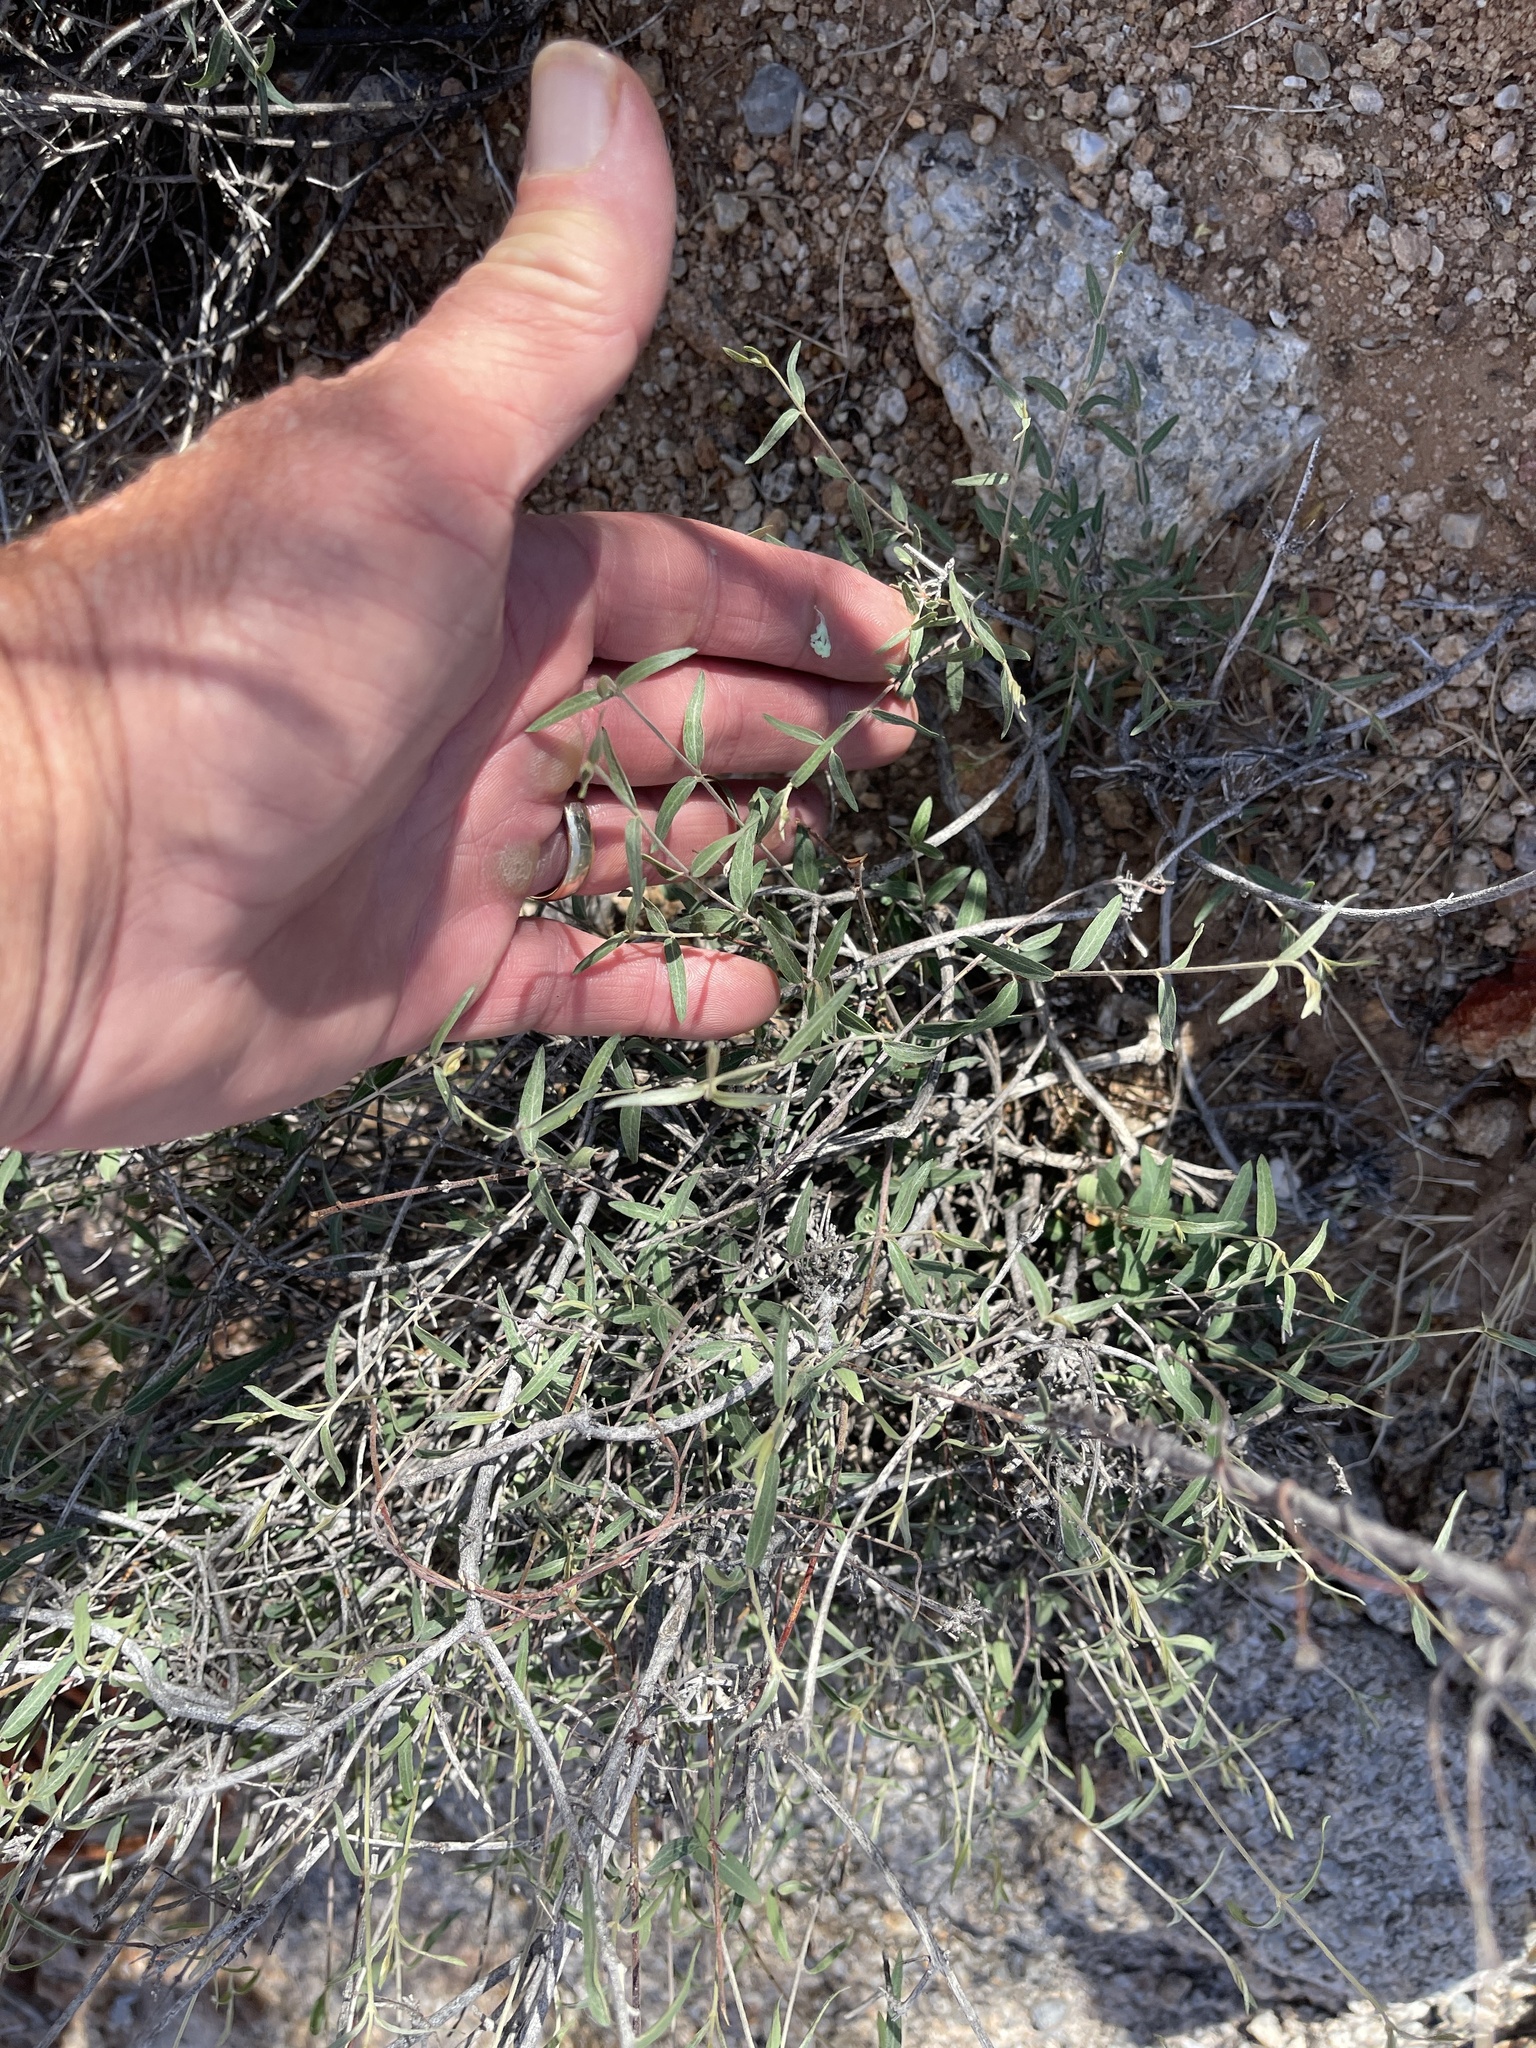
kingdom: Plantae
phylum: Tracheophyta
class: Magnoliopsida
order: Malpighiales
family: Malpighiaceae
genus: Cottsia
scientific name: Cottsia gracilis
